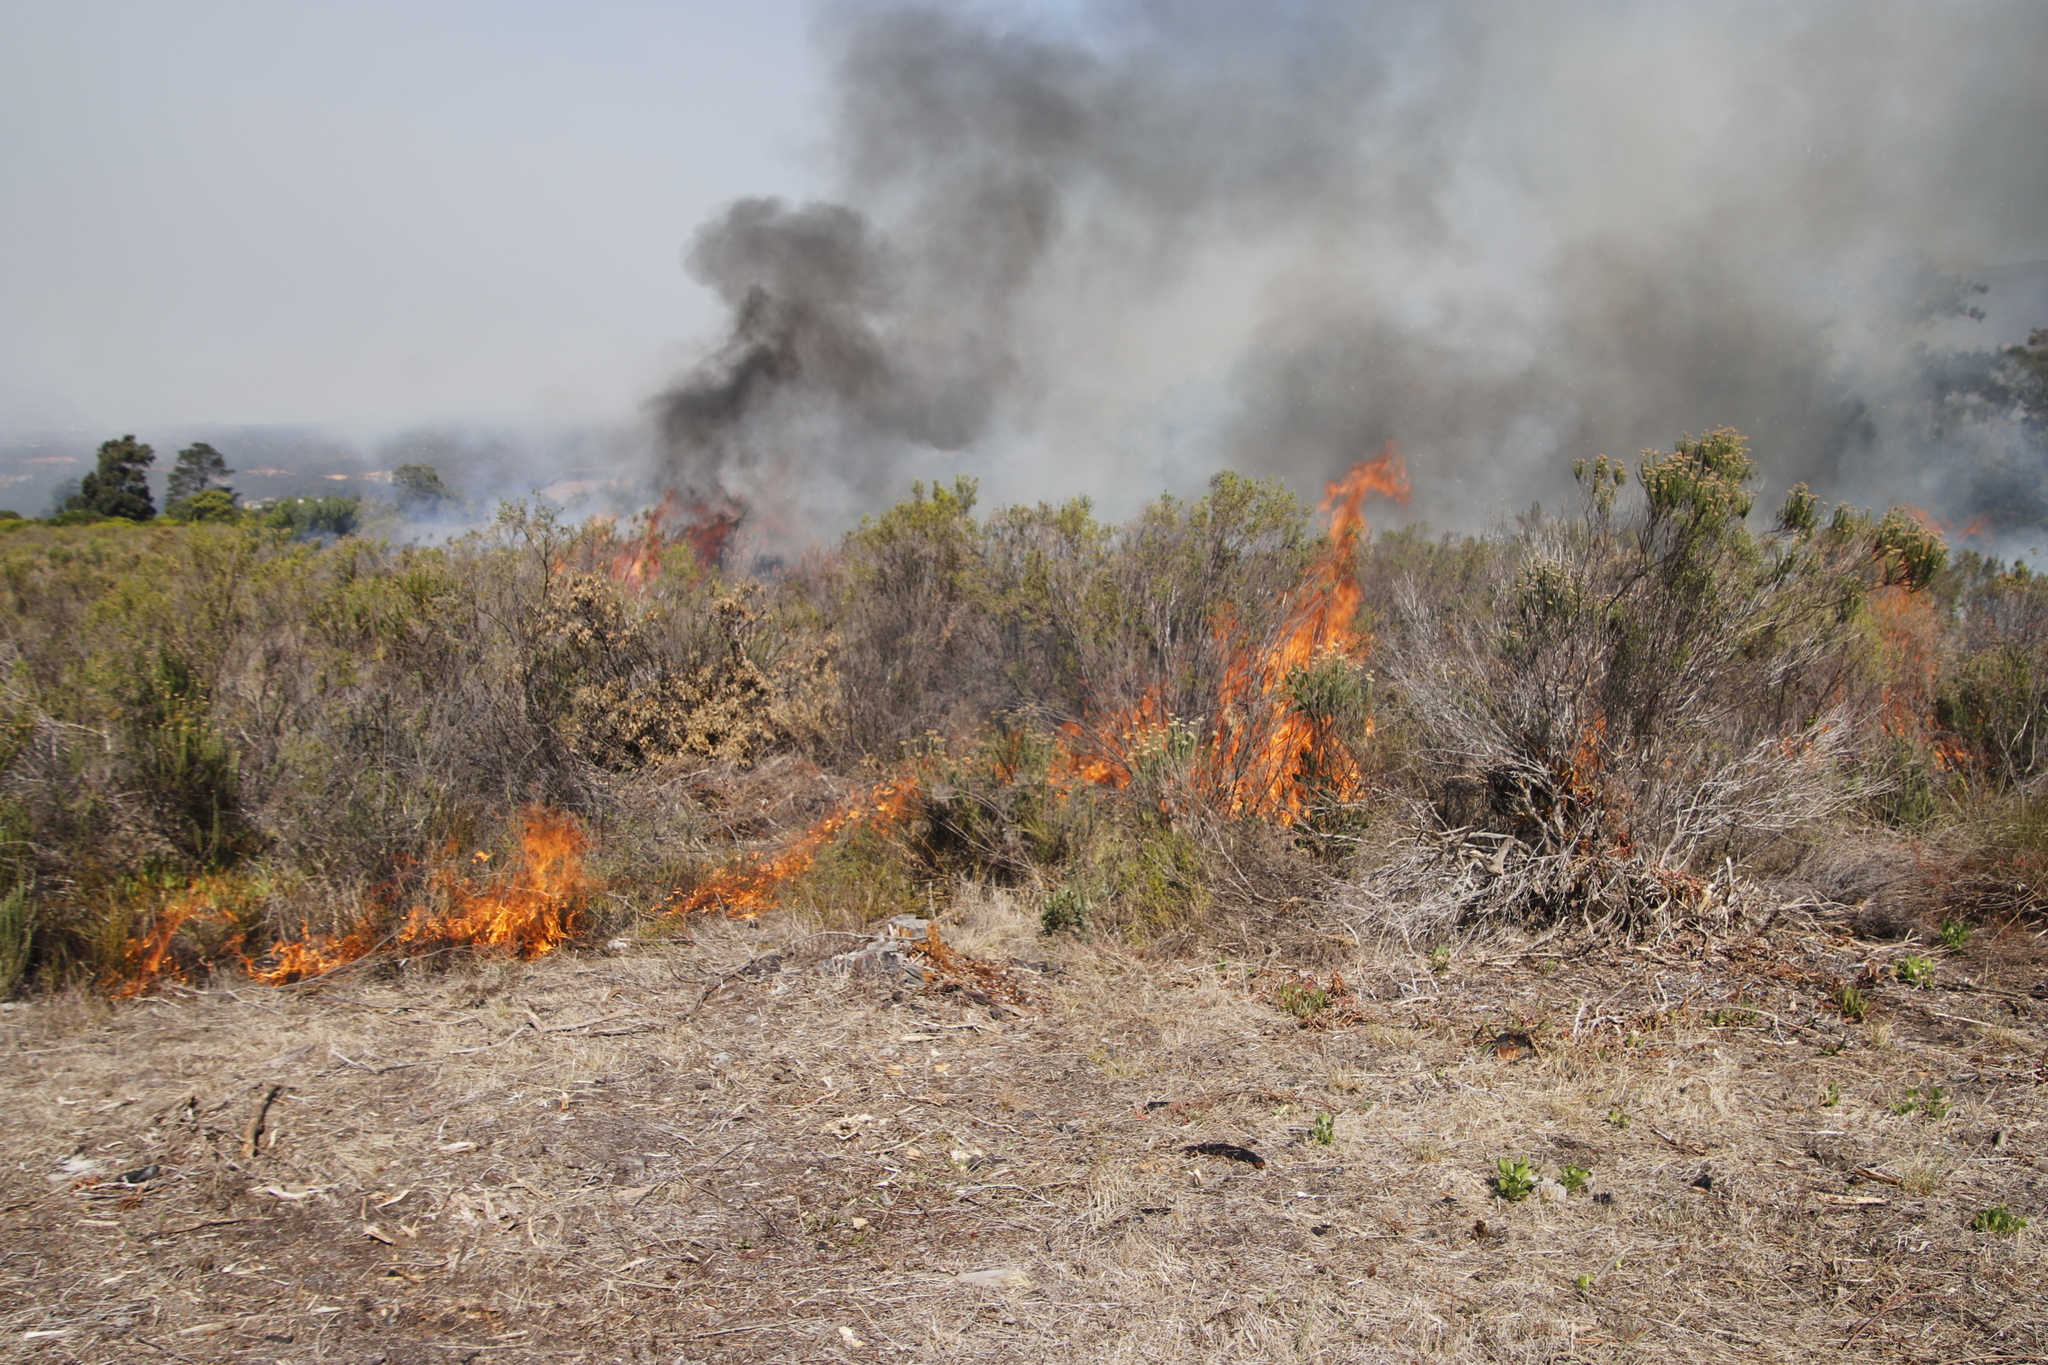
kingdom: Plantae
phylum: Tracheophyta
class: Magnoliopsida
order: Malvales
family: Thymelaeaceae
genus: Passerina
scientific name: Passerina corymbosa
